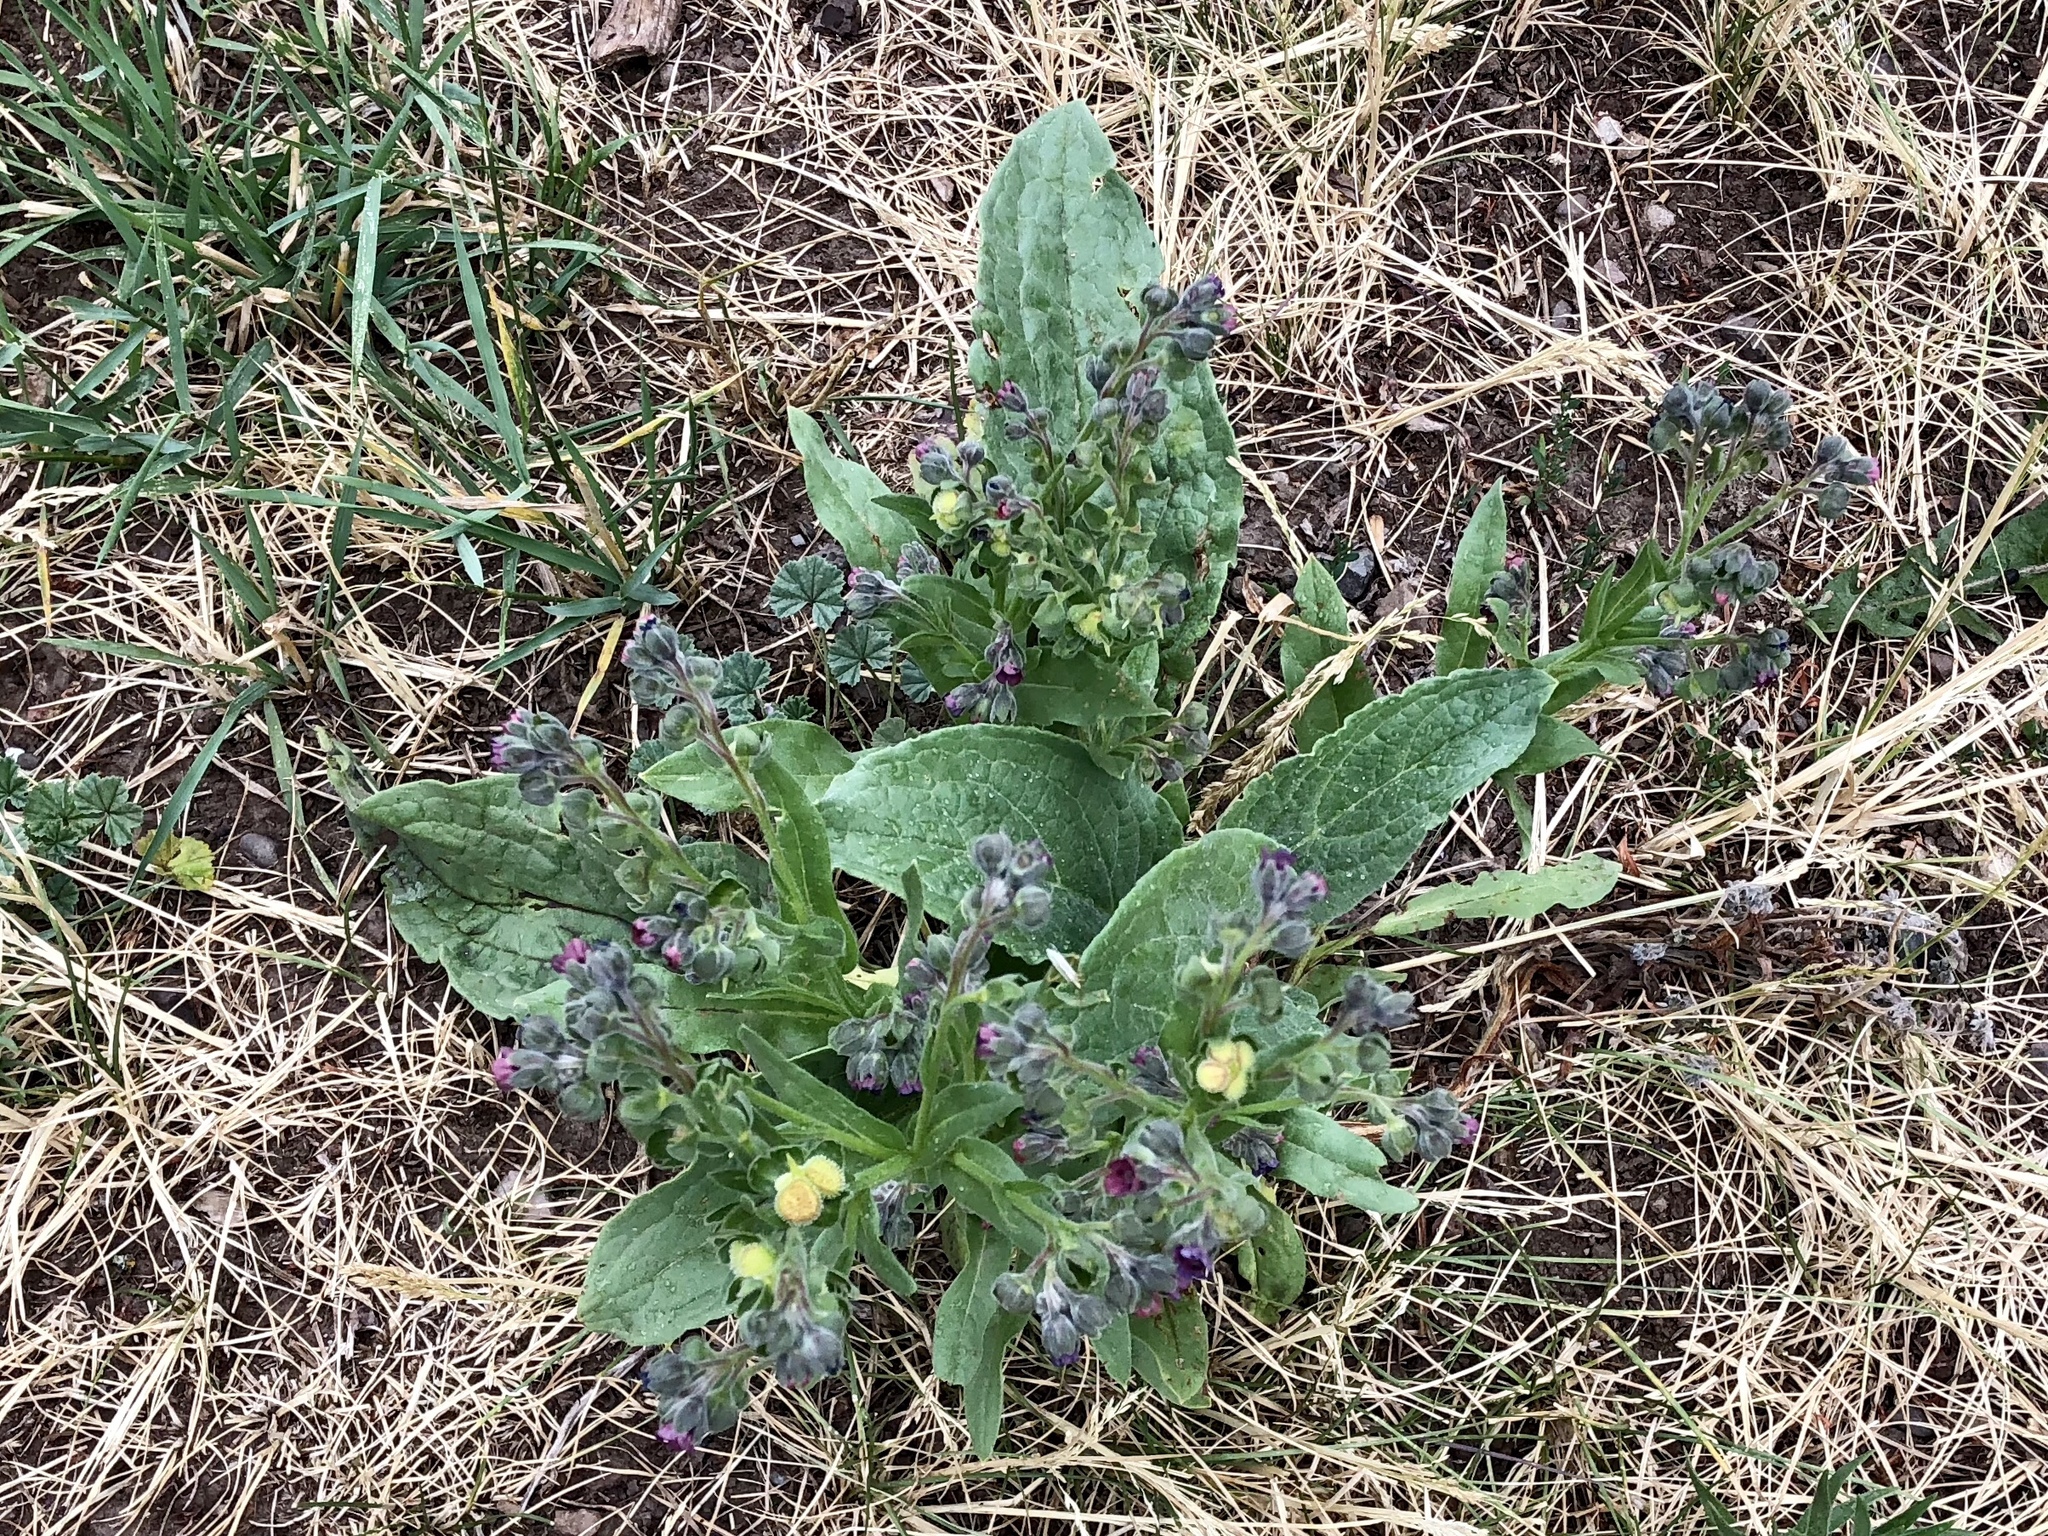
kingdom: Plantae
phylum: Tracheophyta
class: Magnoliopsida
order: Boraginales
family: Boraginaceae
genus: Cynoglossum
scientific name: Cynoglossum officinale
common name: Hound's-tongue
